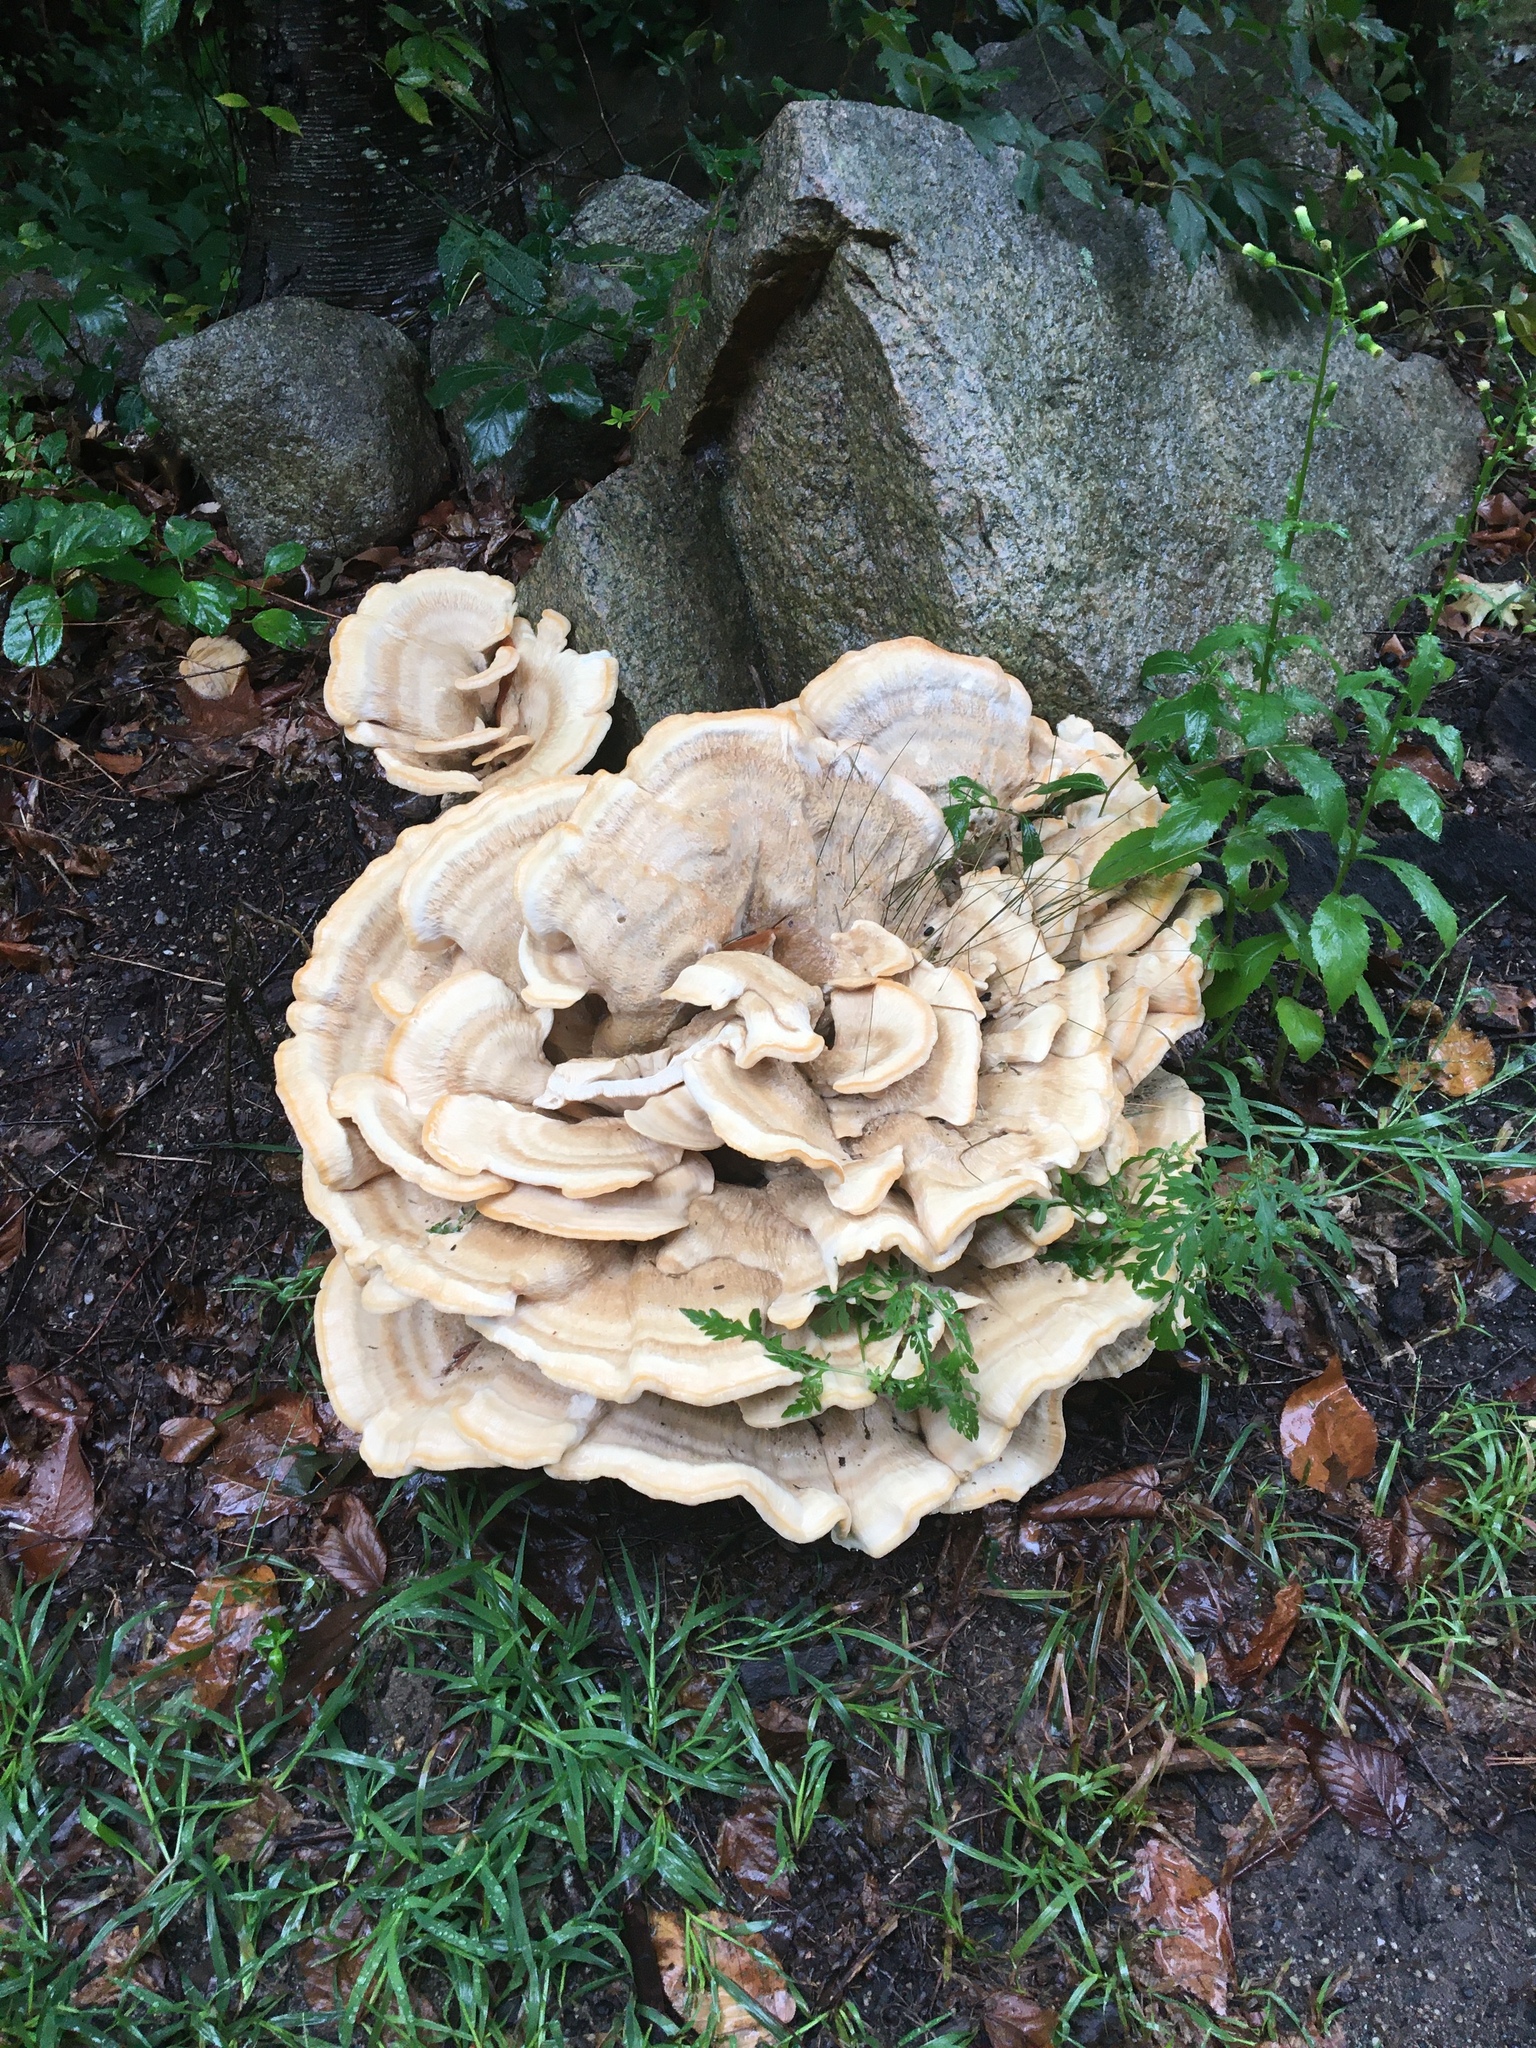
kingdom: Fungi
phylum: Basidiomycota
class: Agaricomycetes
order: Russulales
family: Bondarzewiaceae
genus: Bondarzewia
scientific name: Bondarzewia berkeleyi
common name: Berkeley's polypore
